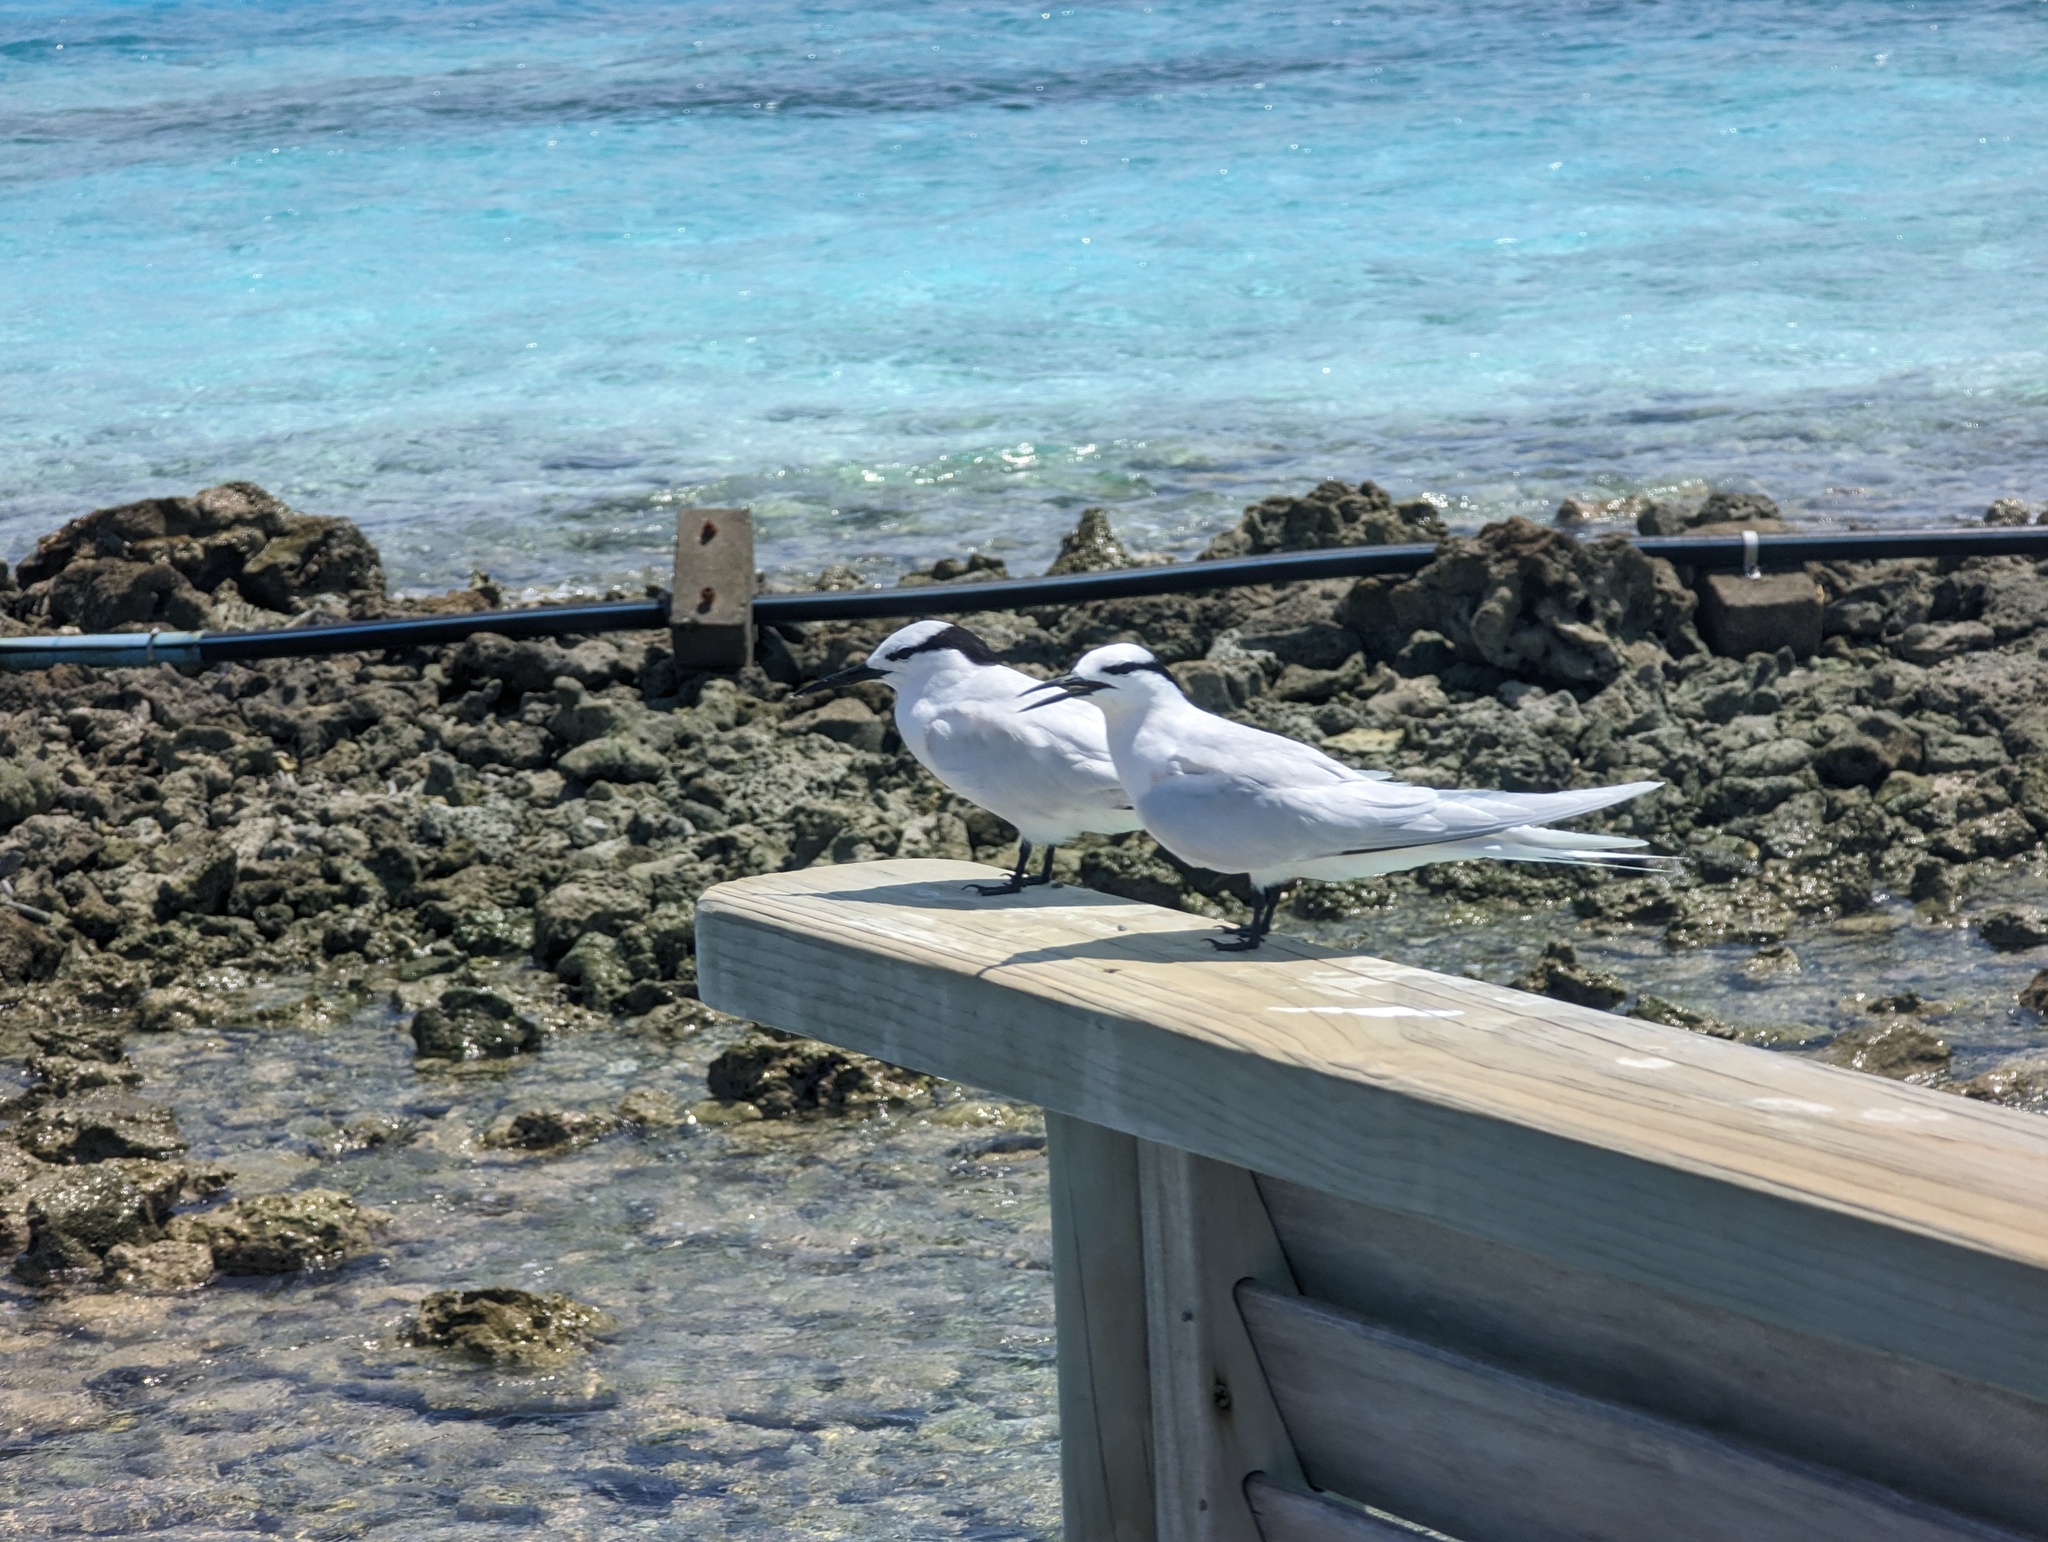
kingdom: Animalia
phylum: Chordata
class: Aves
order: Charadriiformes
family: Laridae
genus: Sterna
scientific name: Sterna sumatrana
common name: Black-naped tern
